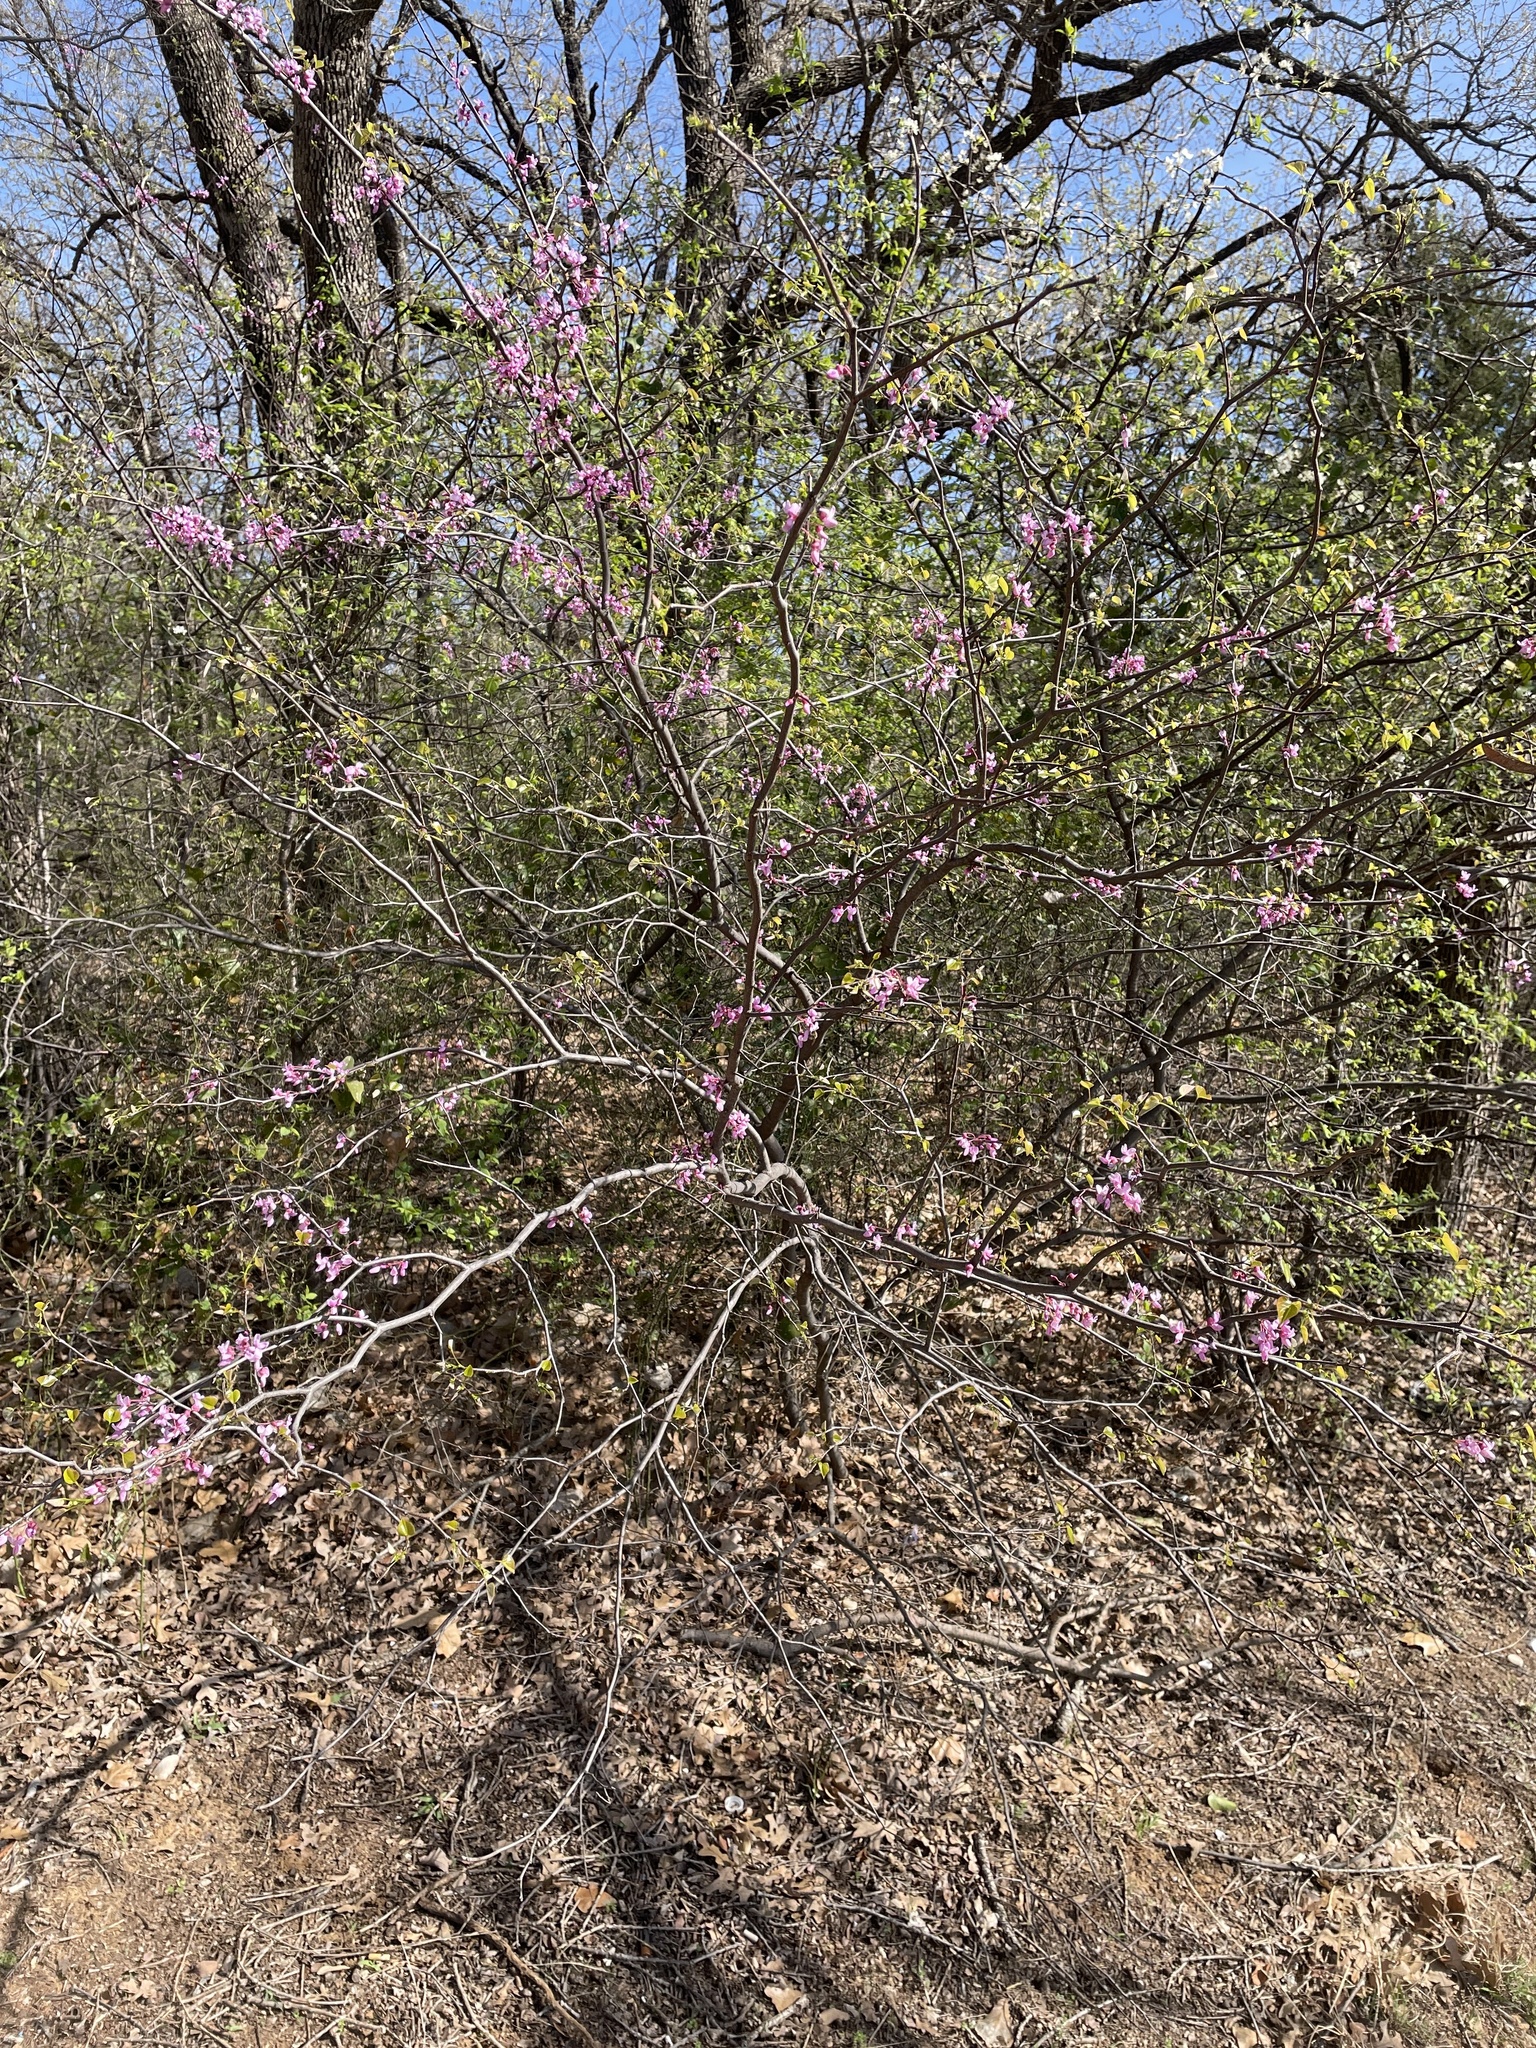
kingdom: Plantae
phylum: Tracheophyta
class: Magnoliopsida
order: Fabales
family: Fabaceae
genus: Cercis
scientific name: Cercis canadensis
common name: Eastern redbud
